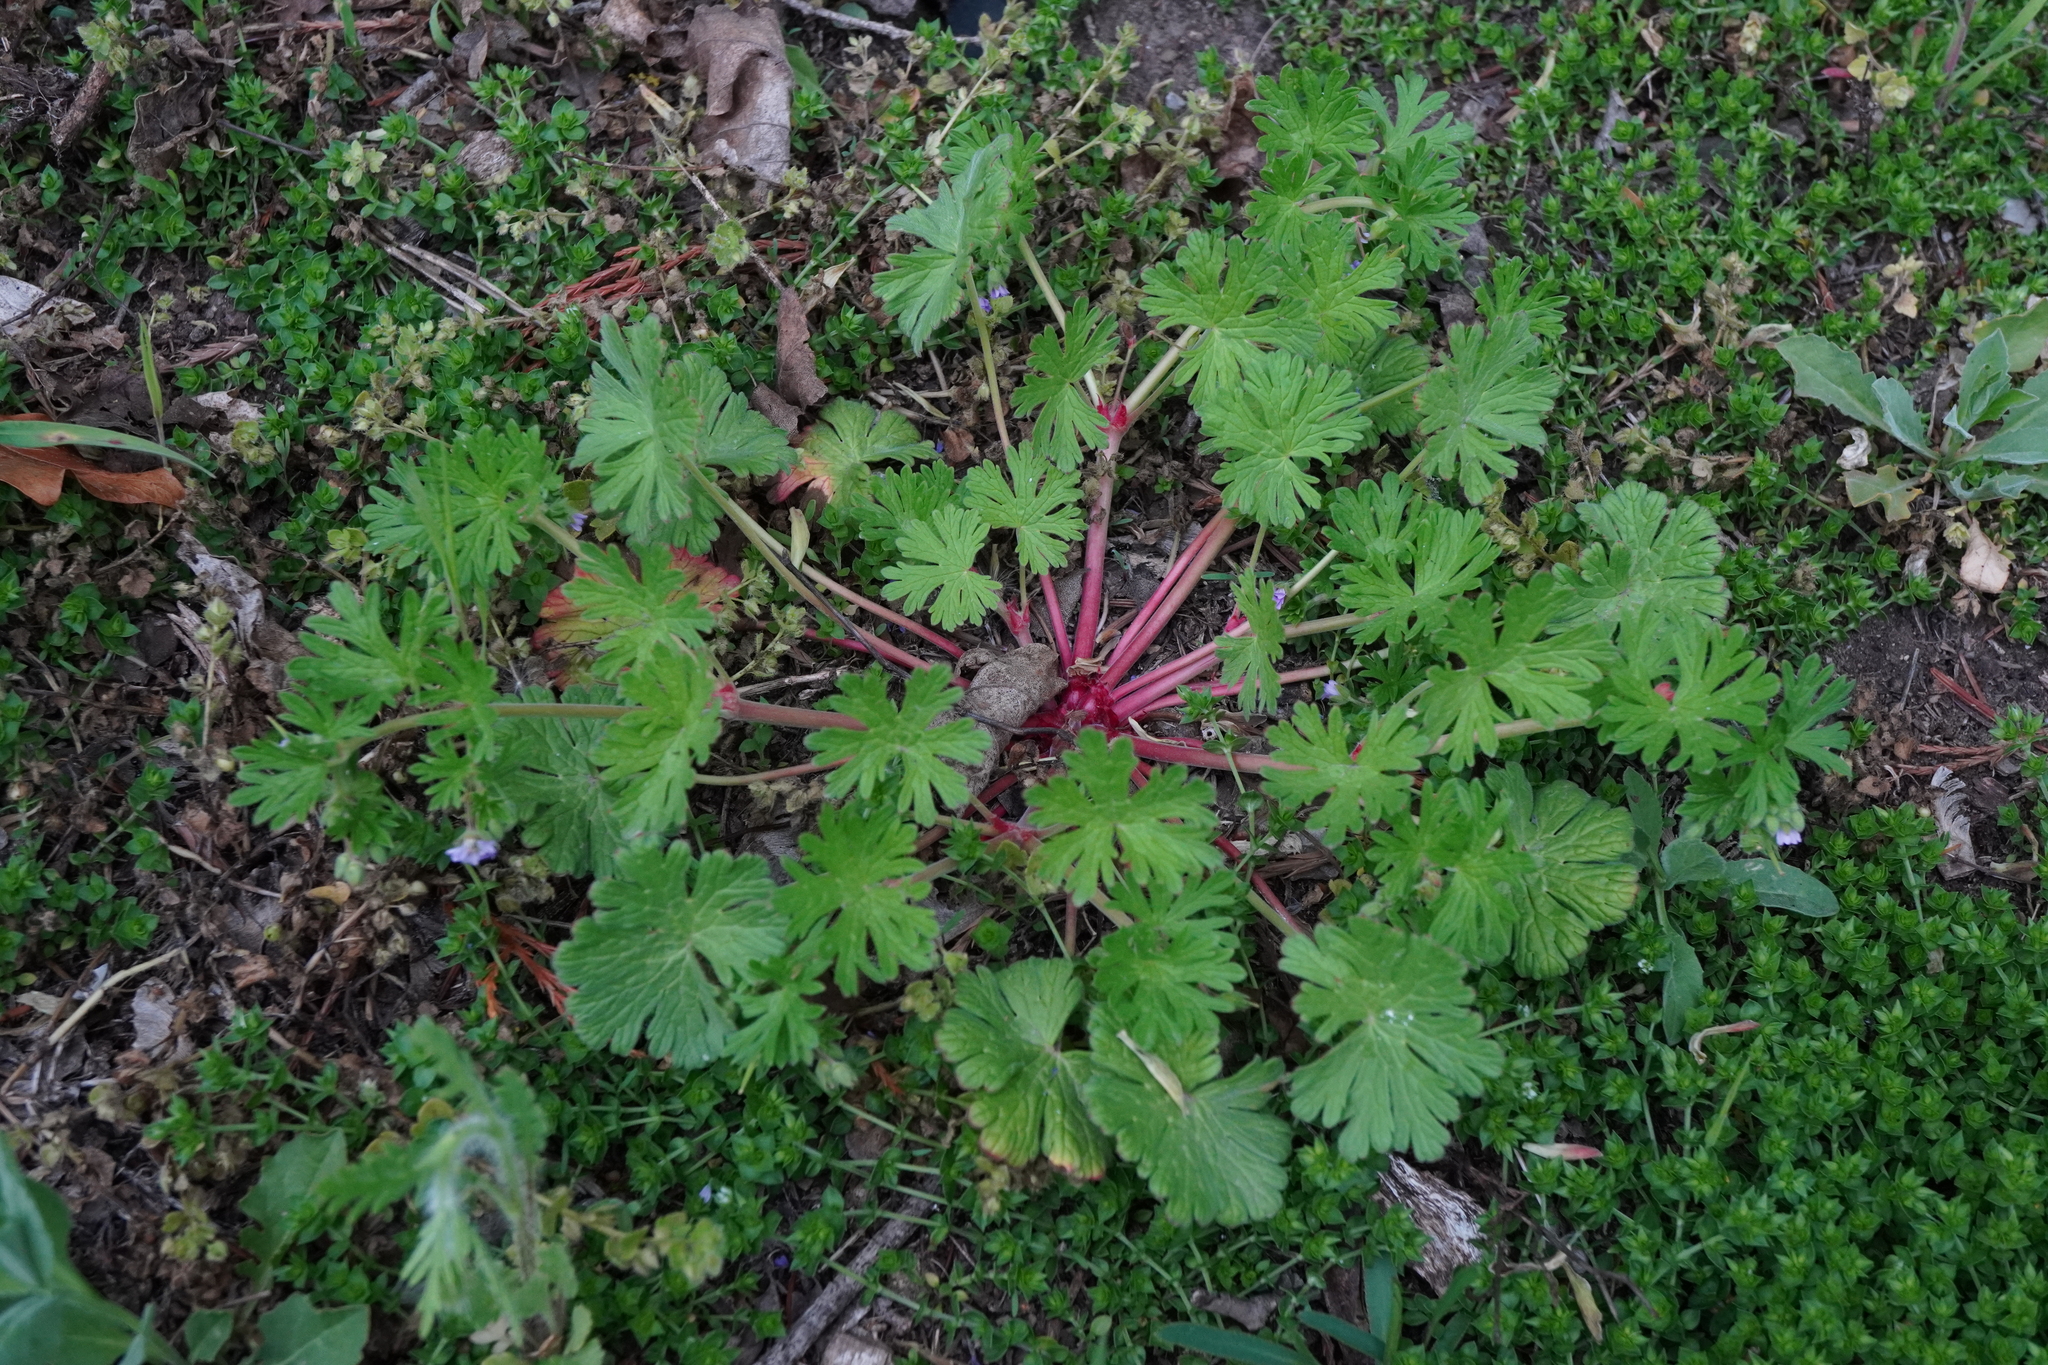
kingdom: Plantae
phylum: Tracheophyta
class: Magnoliopsida
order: Geraniales
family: Geraniaceae
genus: Geranium
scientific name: Geranium pusillum
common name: Small geranium
